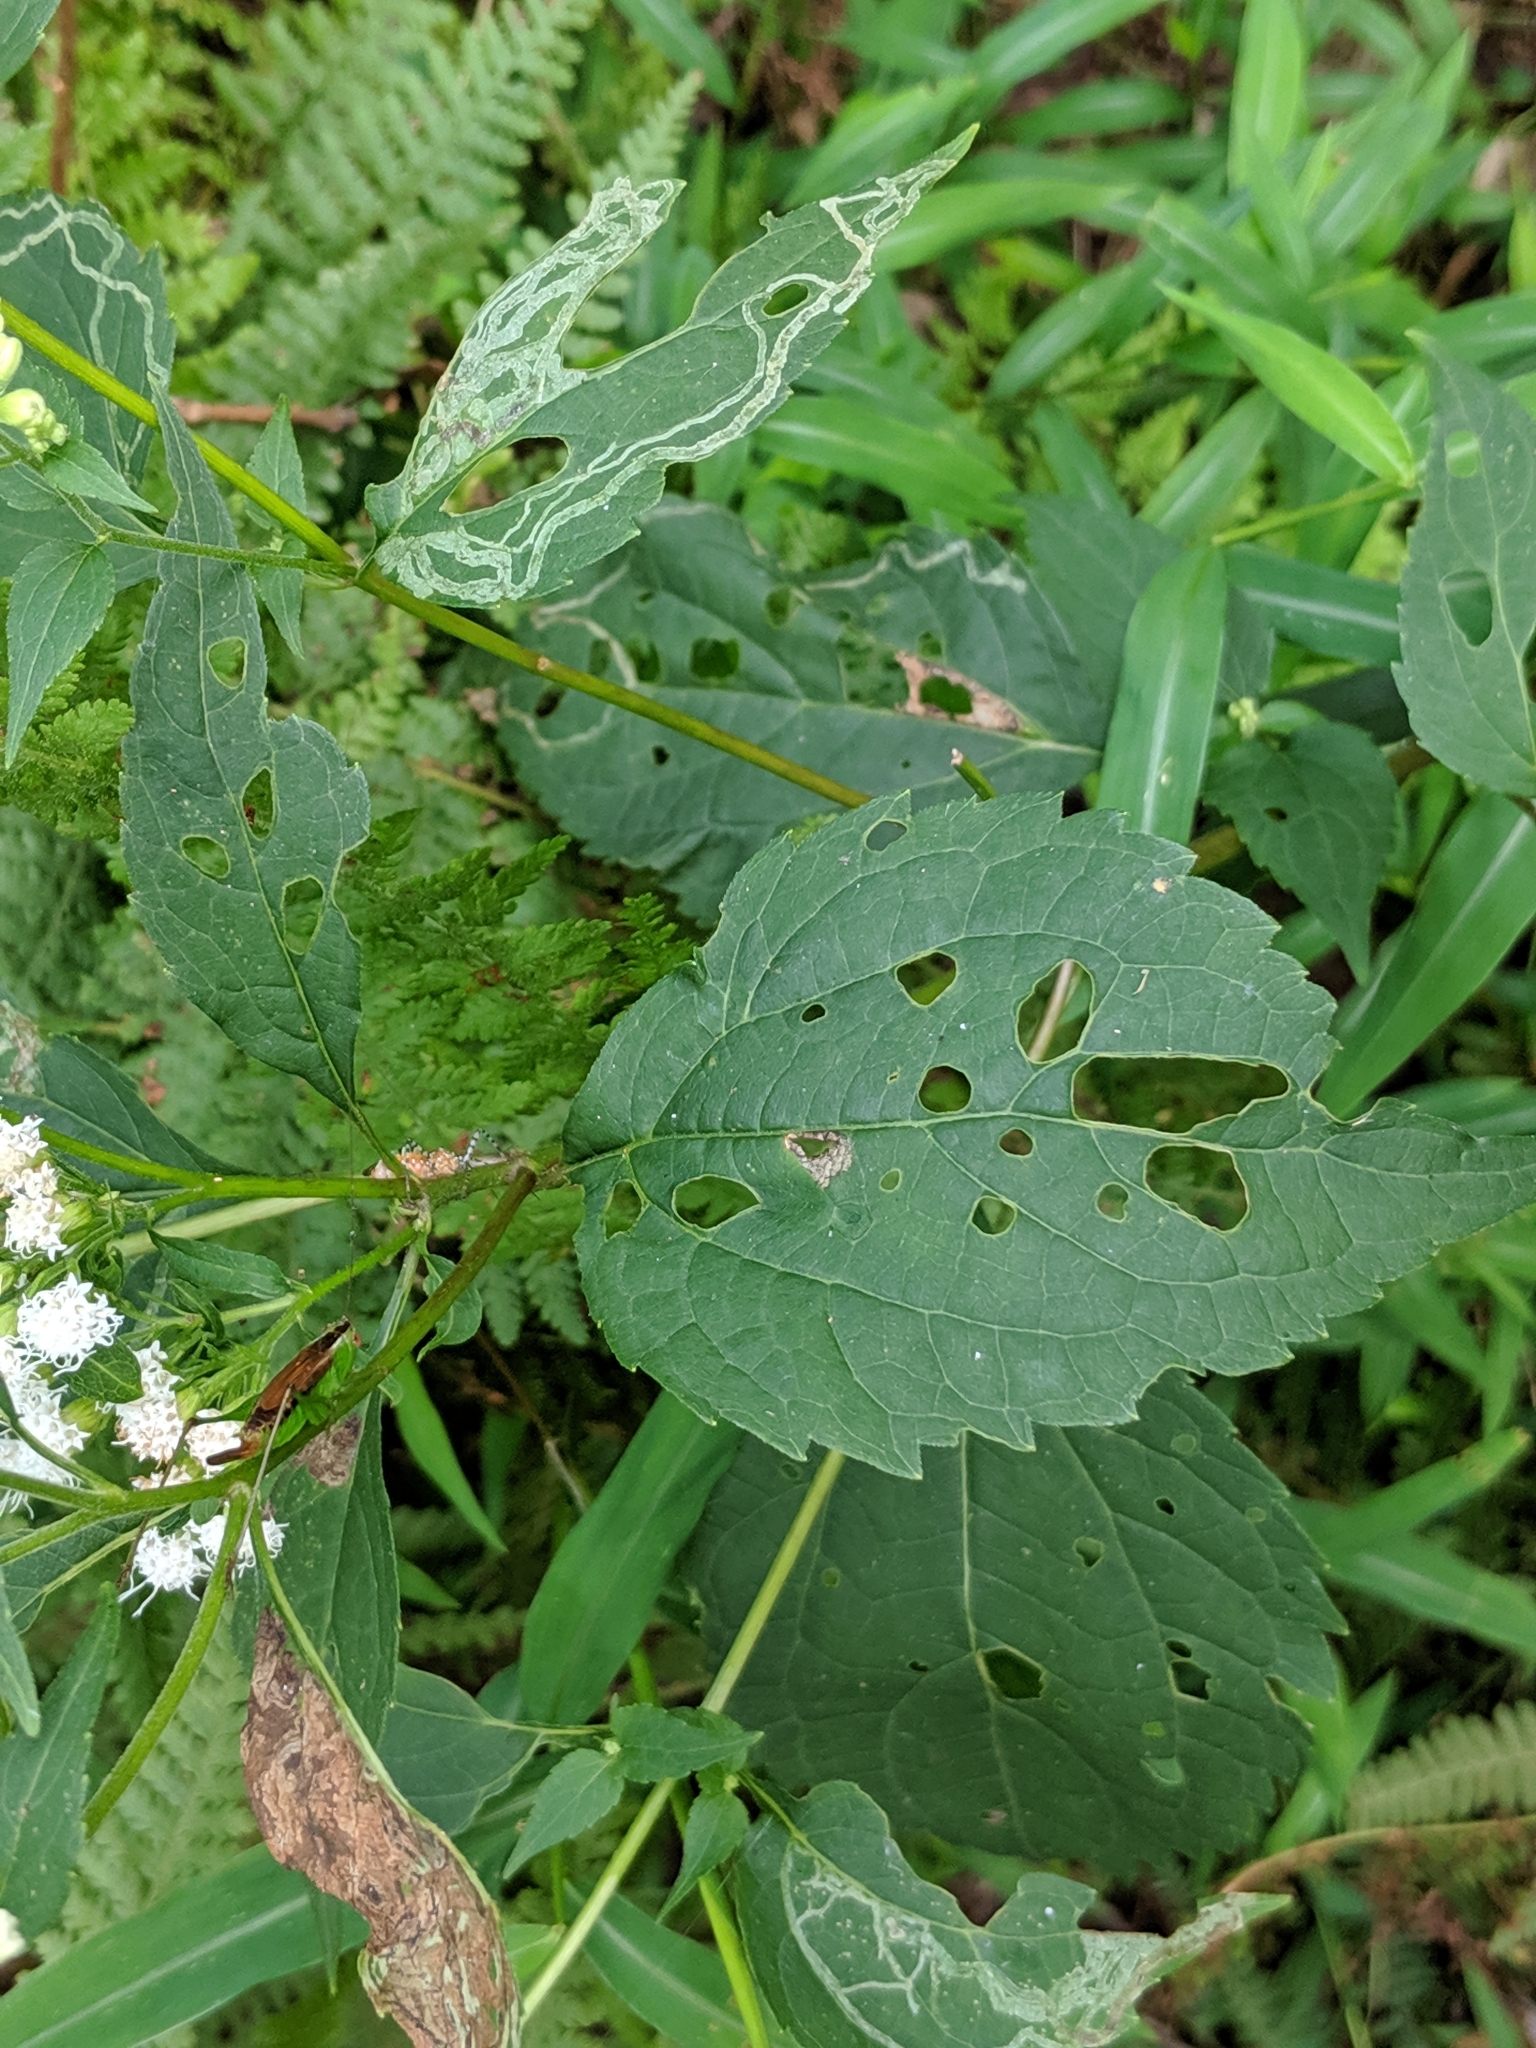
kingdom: Plantae
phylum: Tracheophyta
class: Magnoliopsida
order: Asterales
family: Asteraceae
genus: Ageratina
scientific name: Ageratina altissima
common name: White snakeroot
